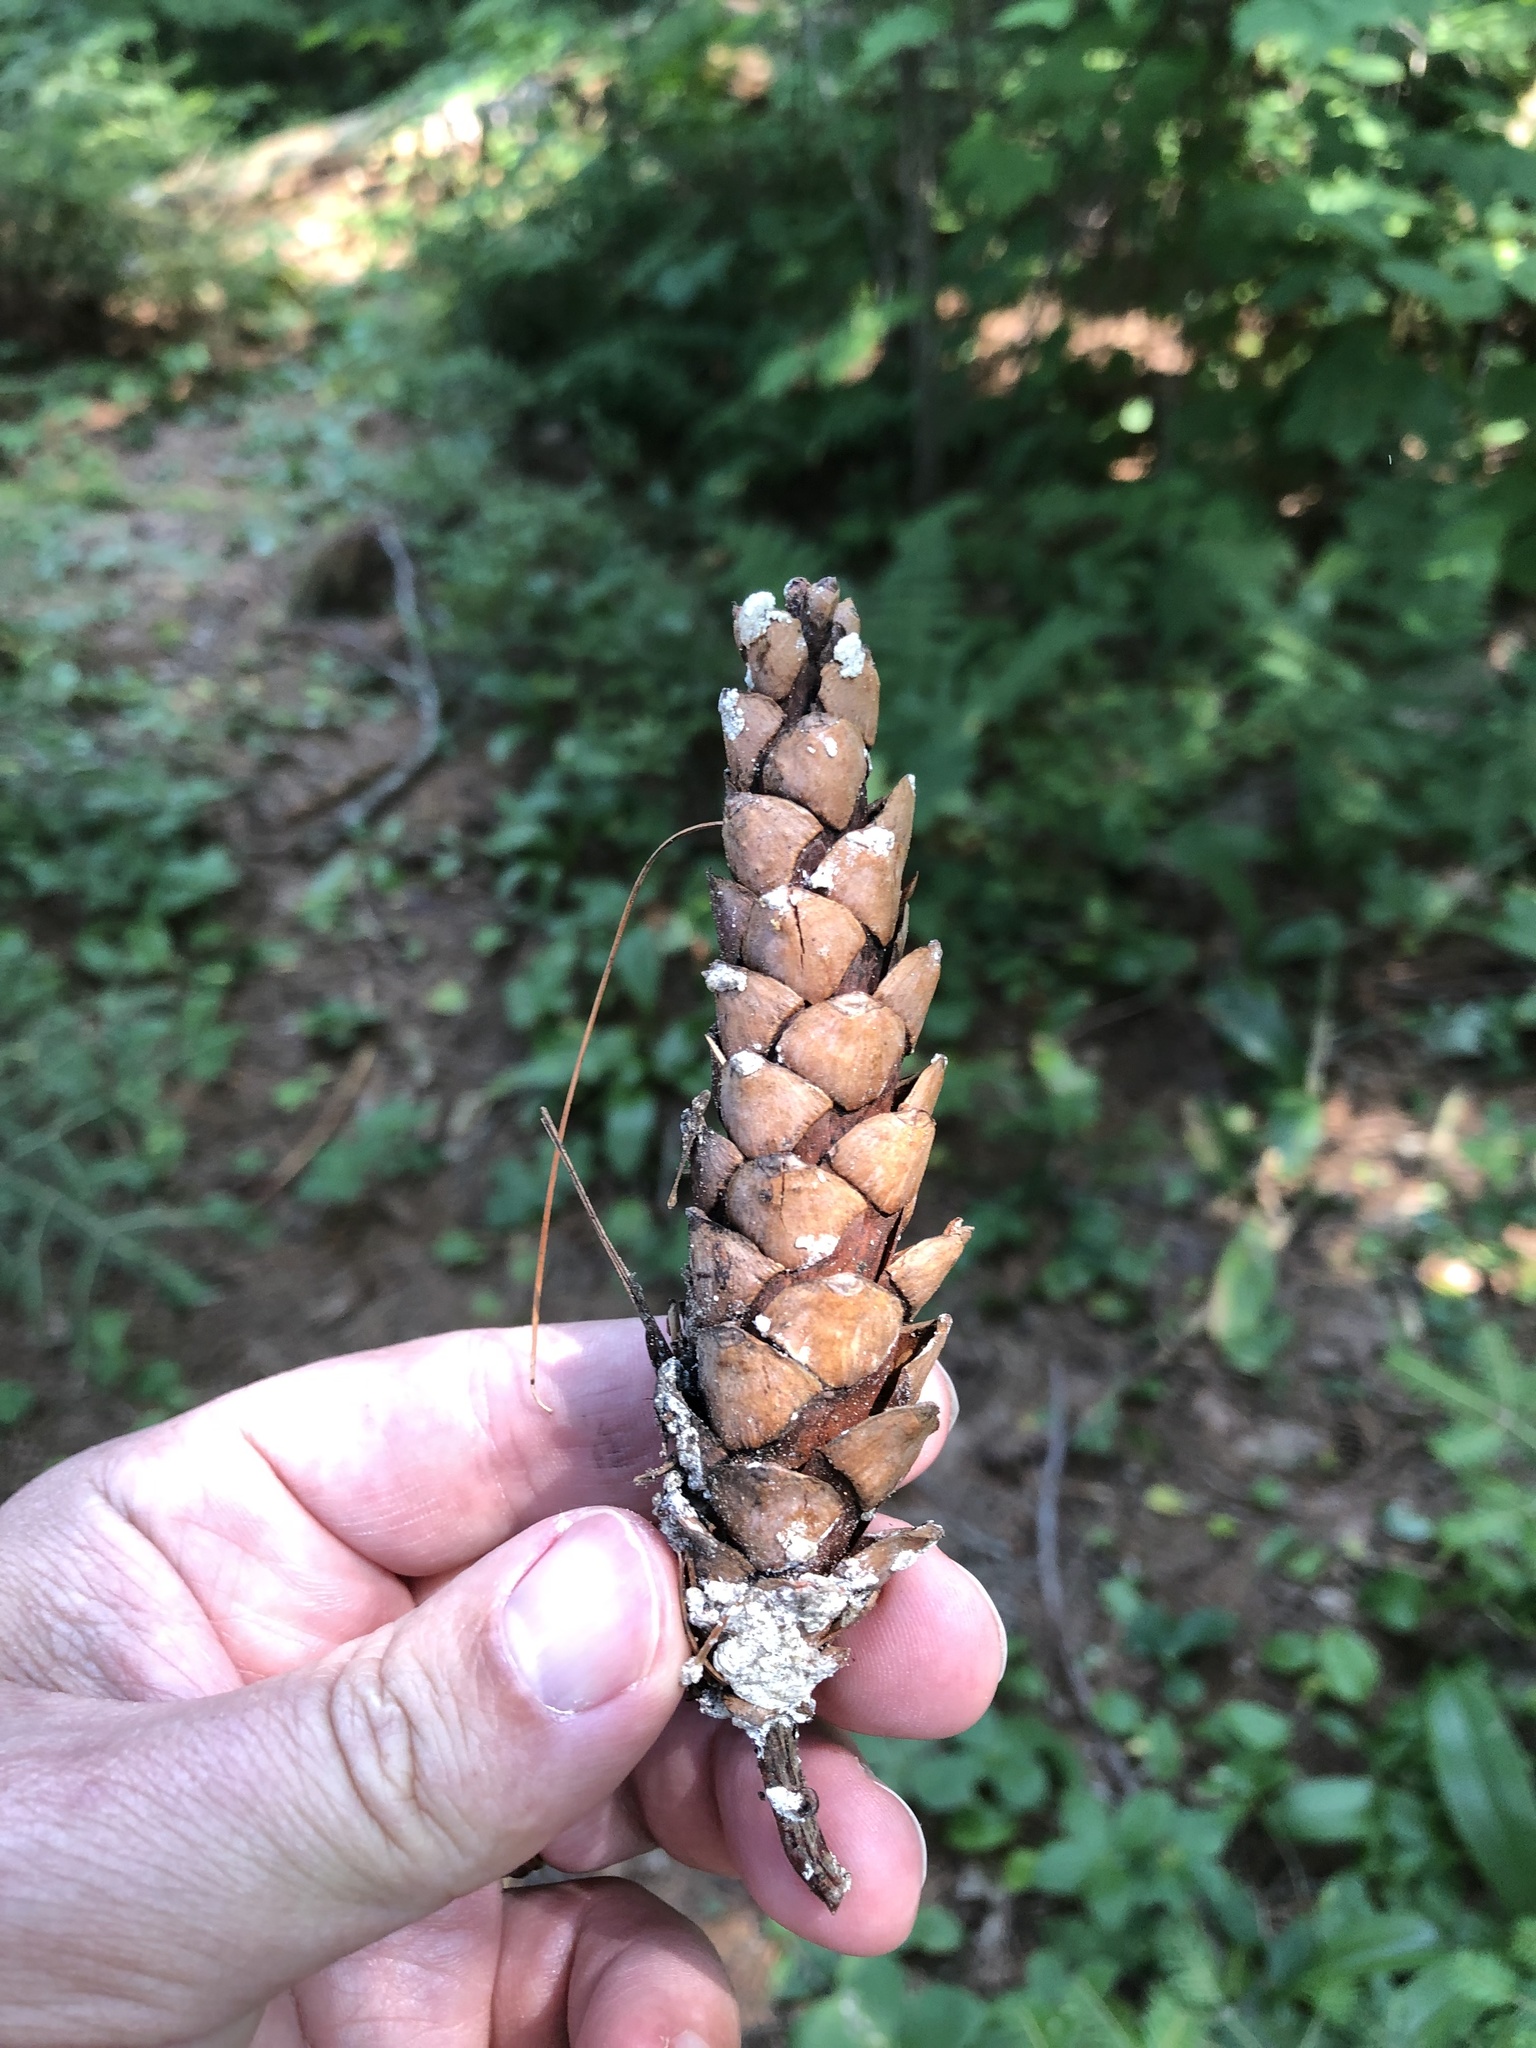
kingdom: Plantae
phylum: Tracheophyta
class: Pinopsida
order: Pinales
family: Pinaceae
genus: Pinus
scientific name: Pinus strobus
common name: Weymouth pine
